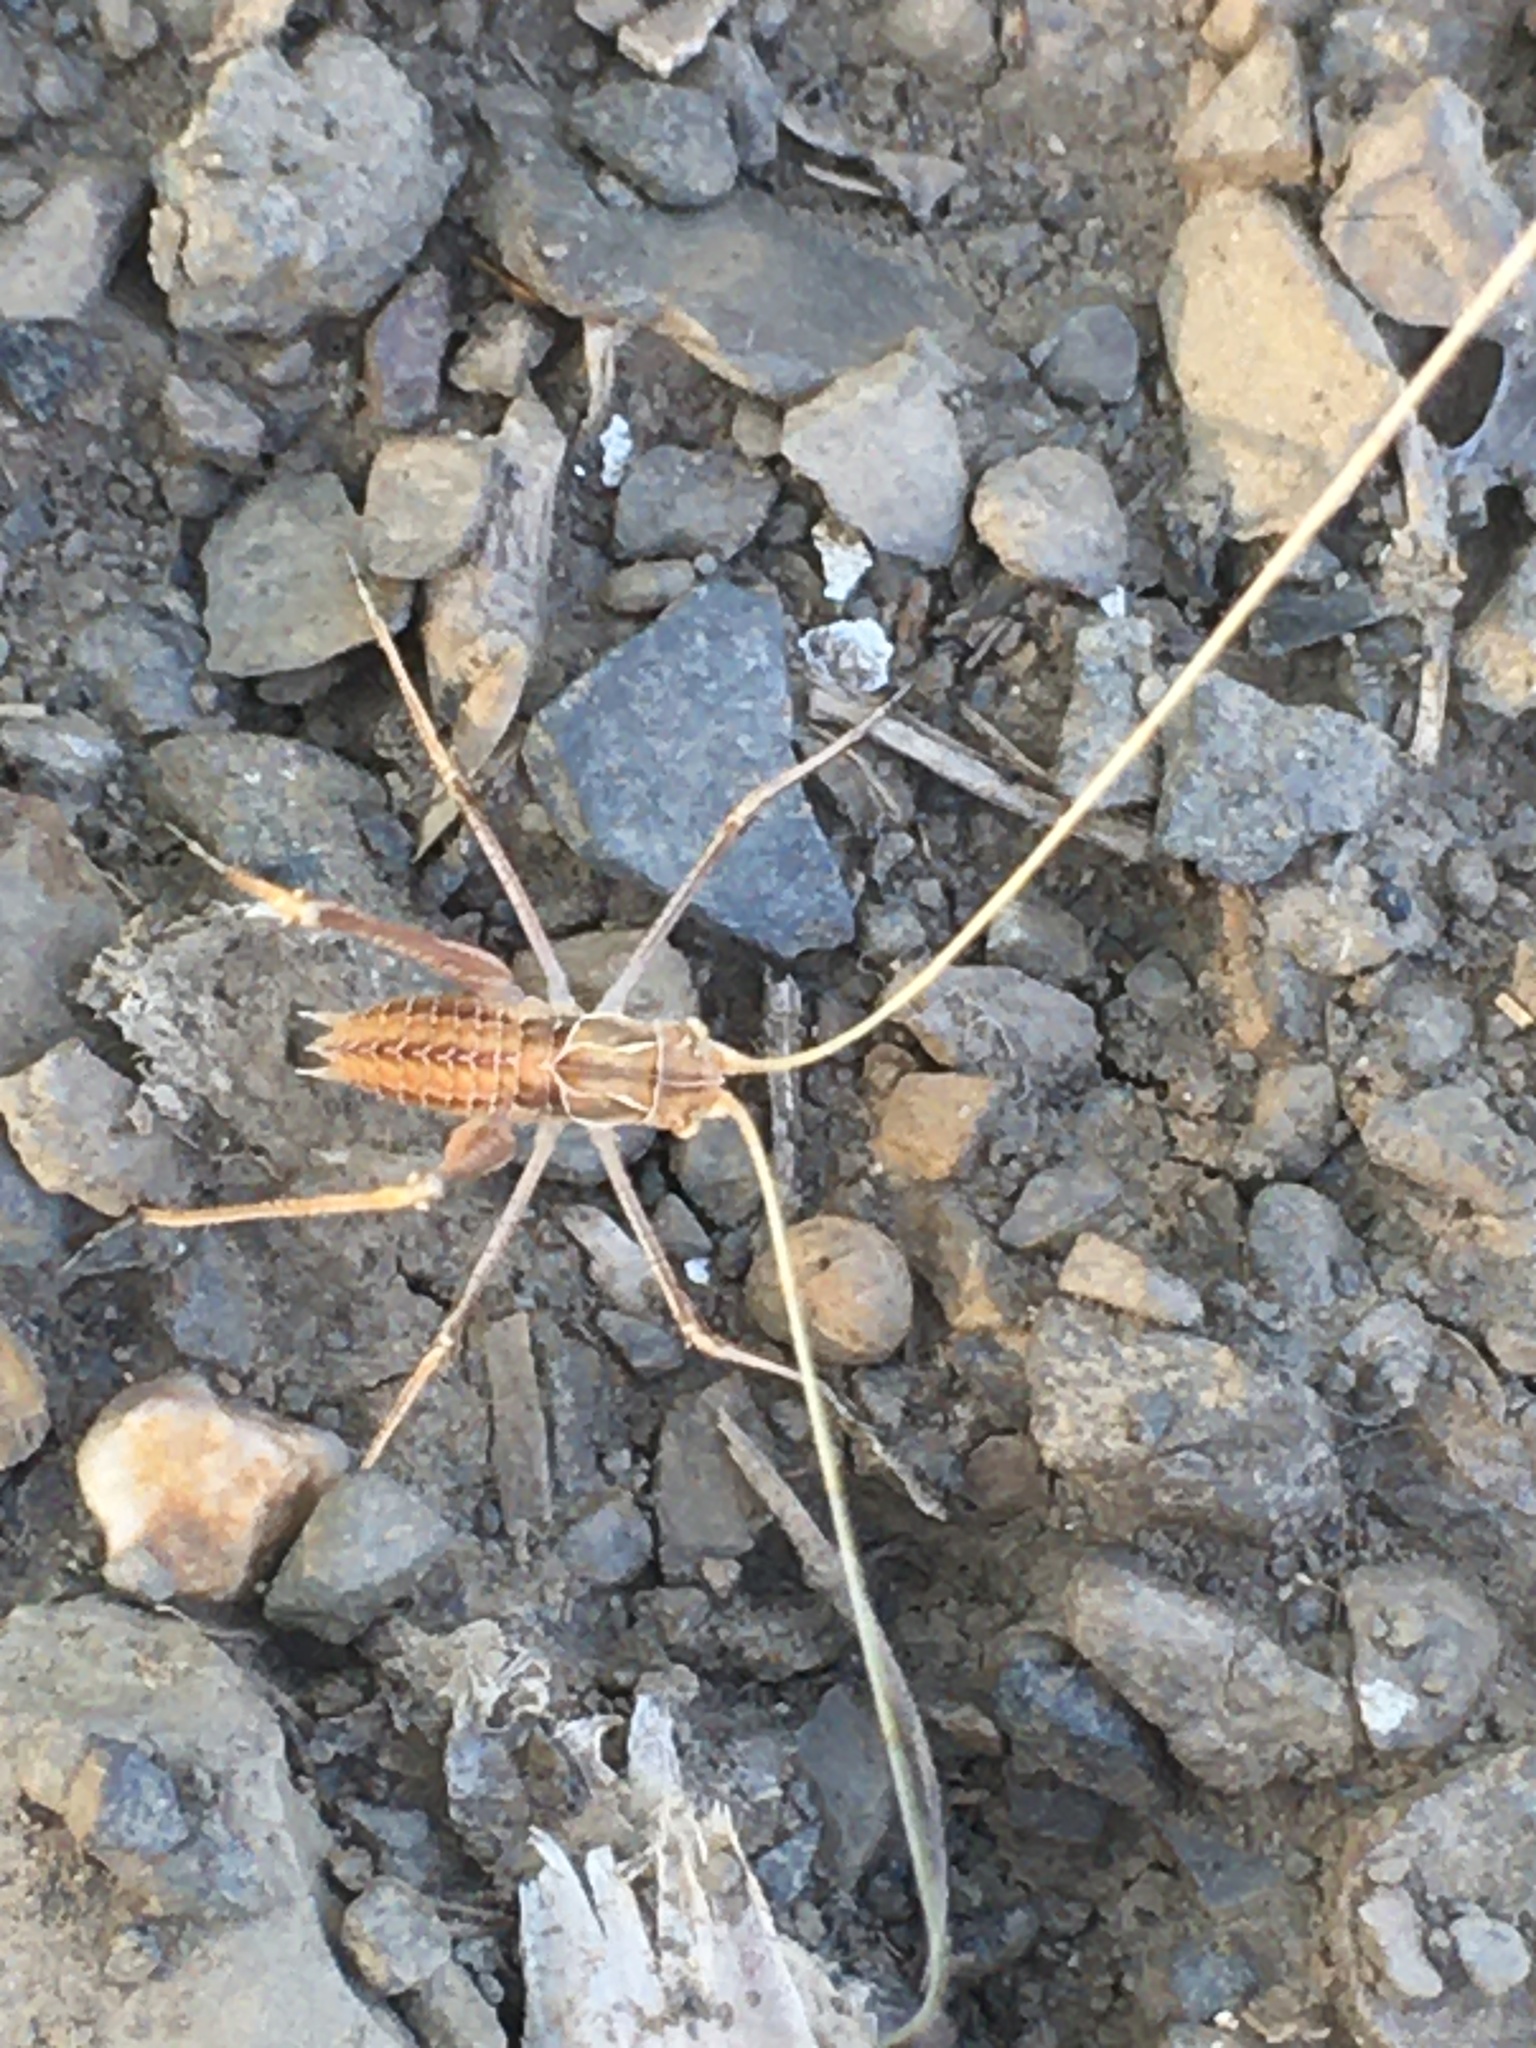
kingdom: Animalia
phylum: Arthropoda
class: Insecta
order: Orthoptera
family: Tettigoniidae
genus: Tylopsis
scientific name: Tylopsis lilifolia
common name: Lily bush-cricket
